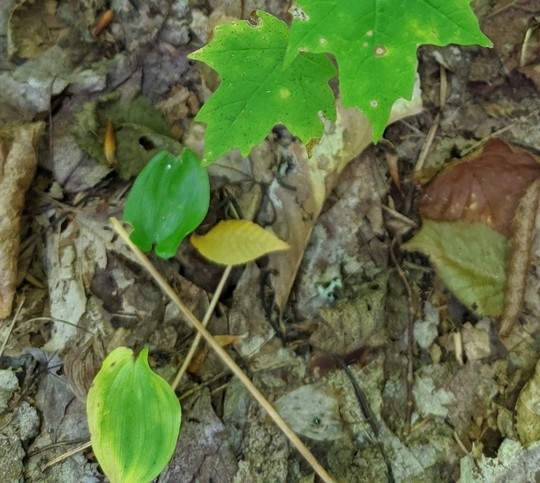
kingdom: Plantae
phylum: Tracheophyta
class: Liliopsida
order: Asparagales
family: Asparagaceae
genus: Maianthemum
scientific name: Maianthemum canadense
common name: False lily-of-the-valley
